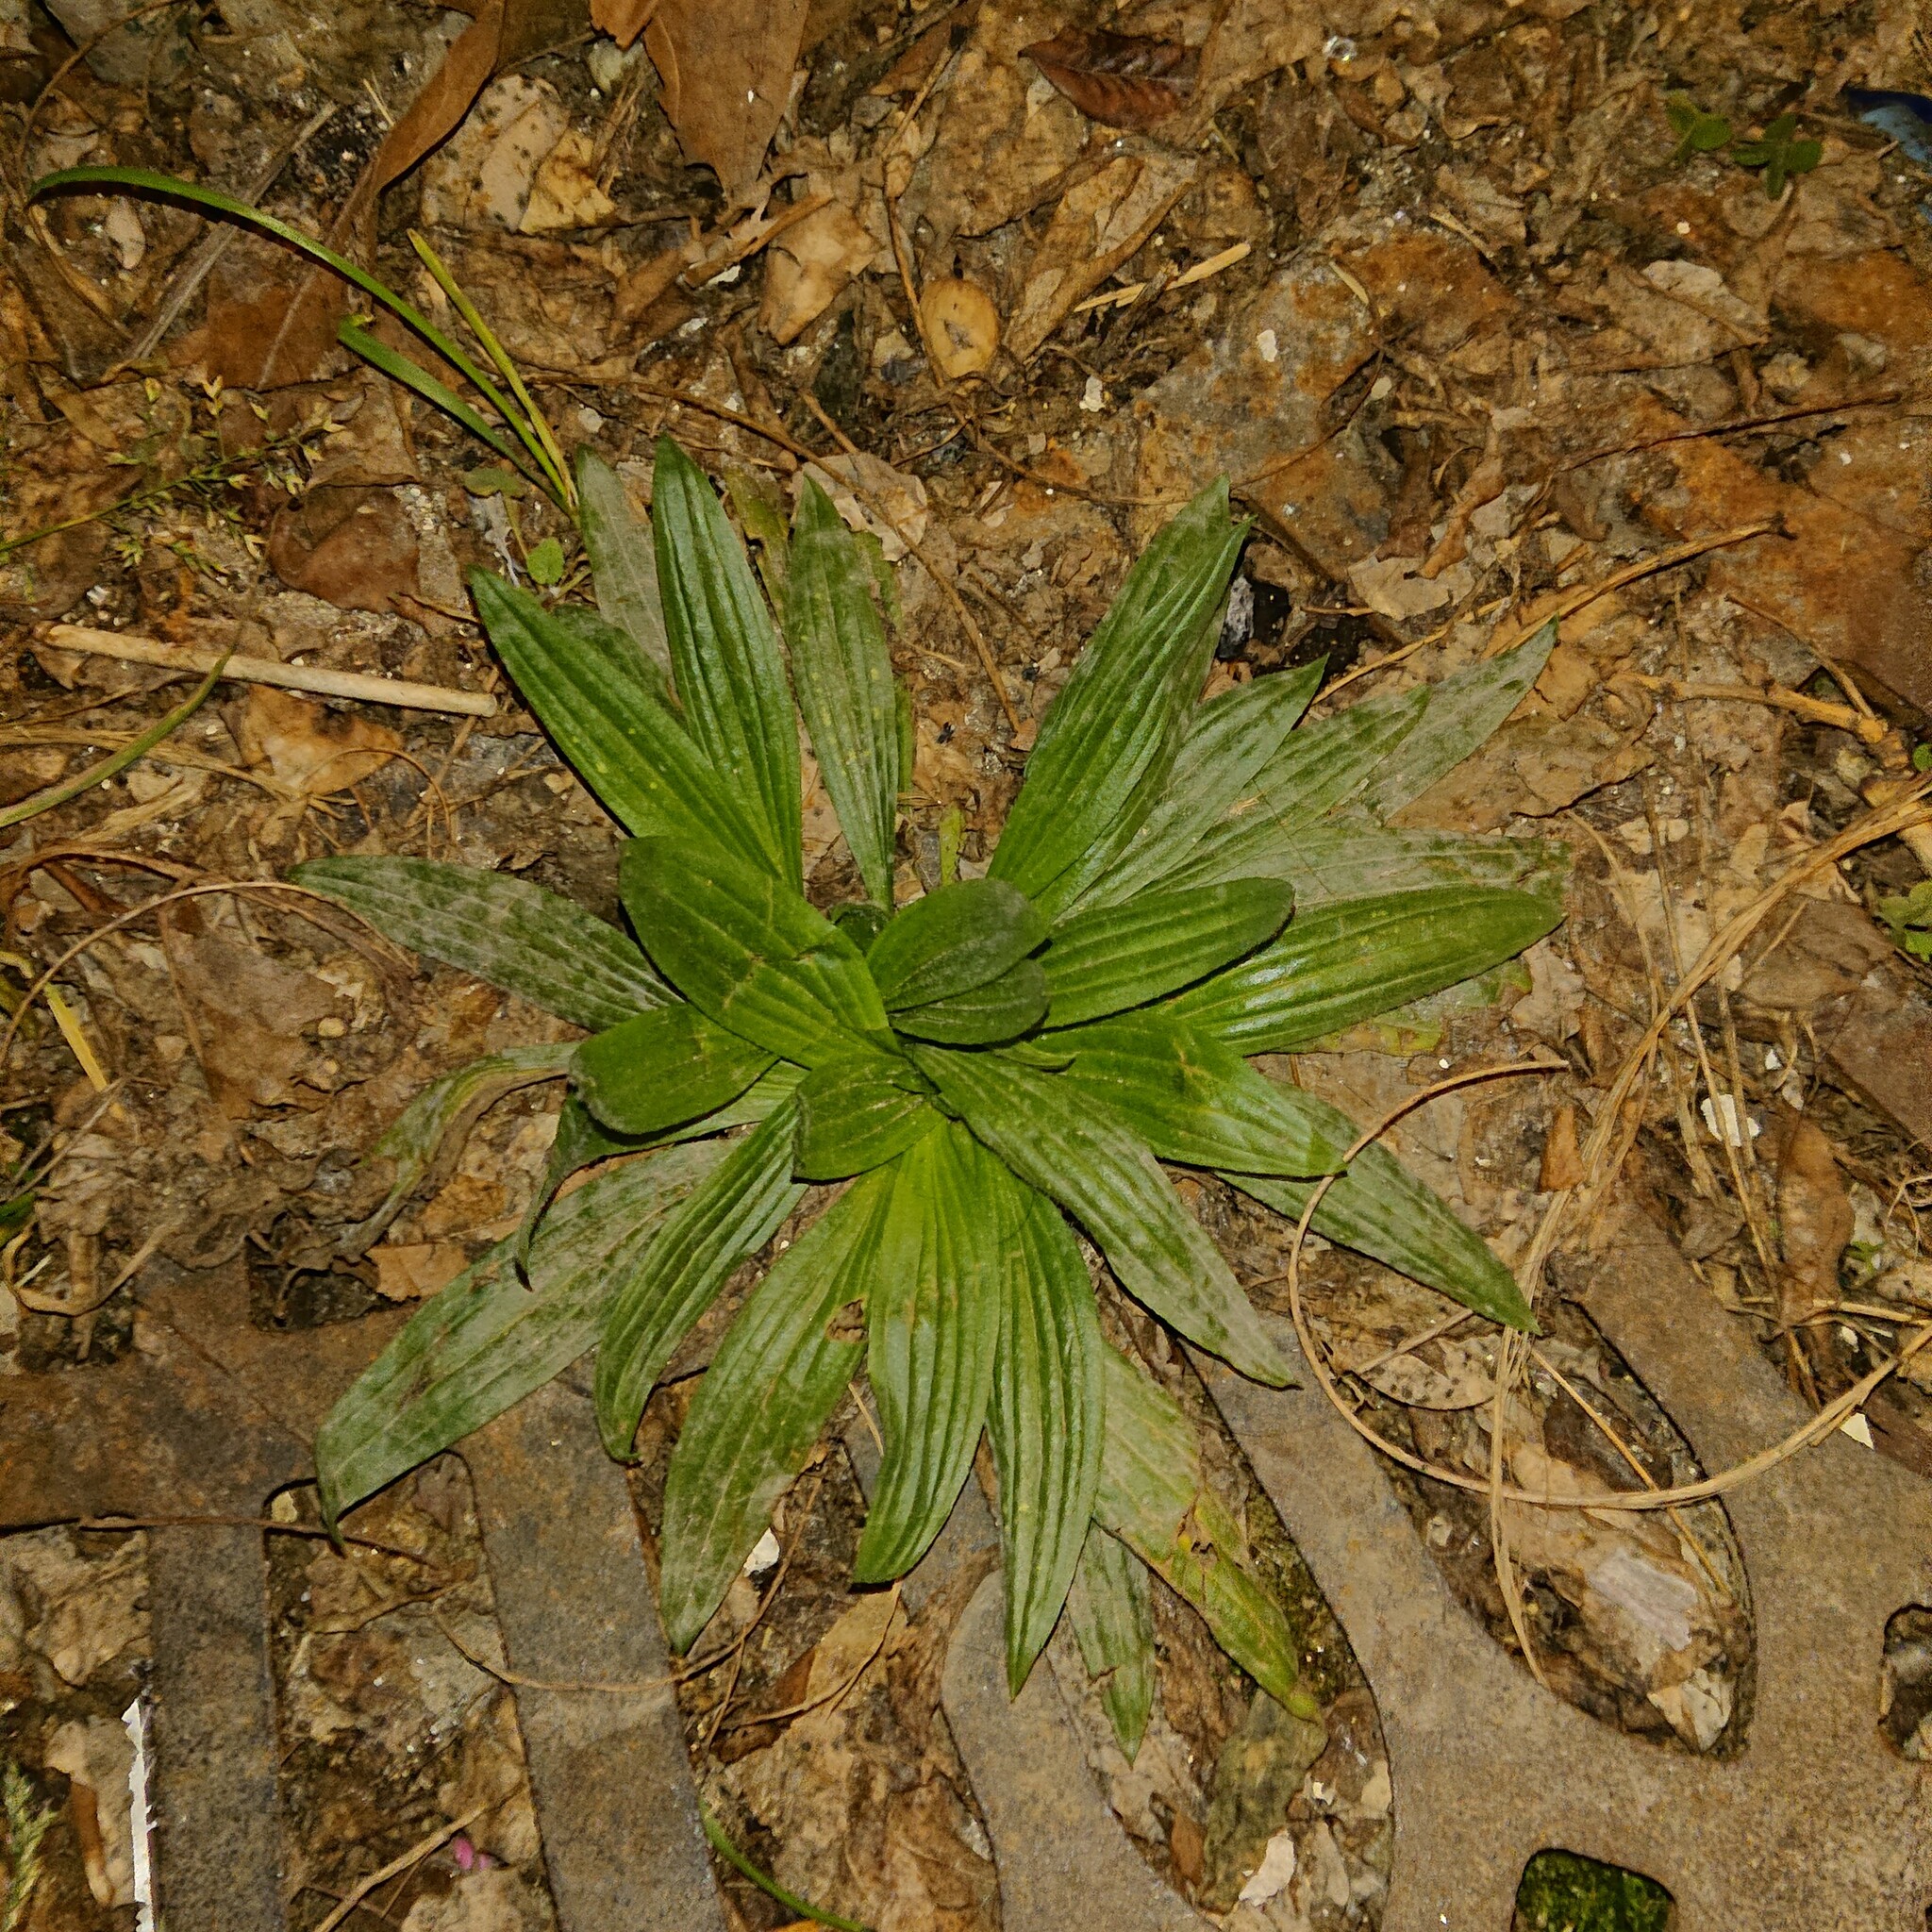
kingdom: Plantae
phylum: Tracheophyta
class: Magnoliopsida
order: Lamiales
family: Plantaginaceae
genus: Plantago
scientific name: Plantago lanceolata
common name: Ribwort plantain
